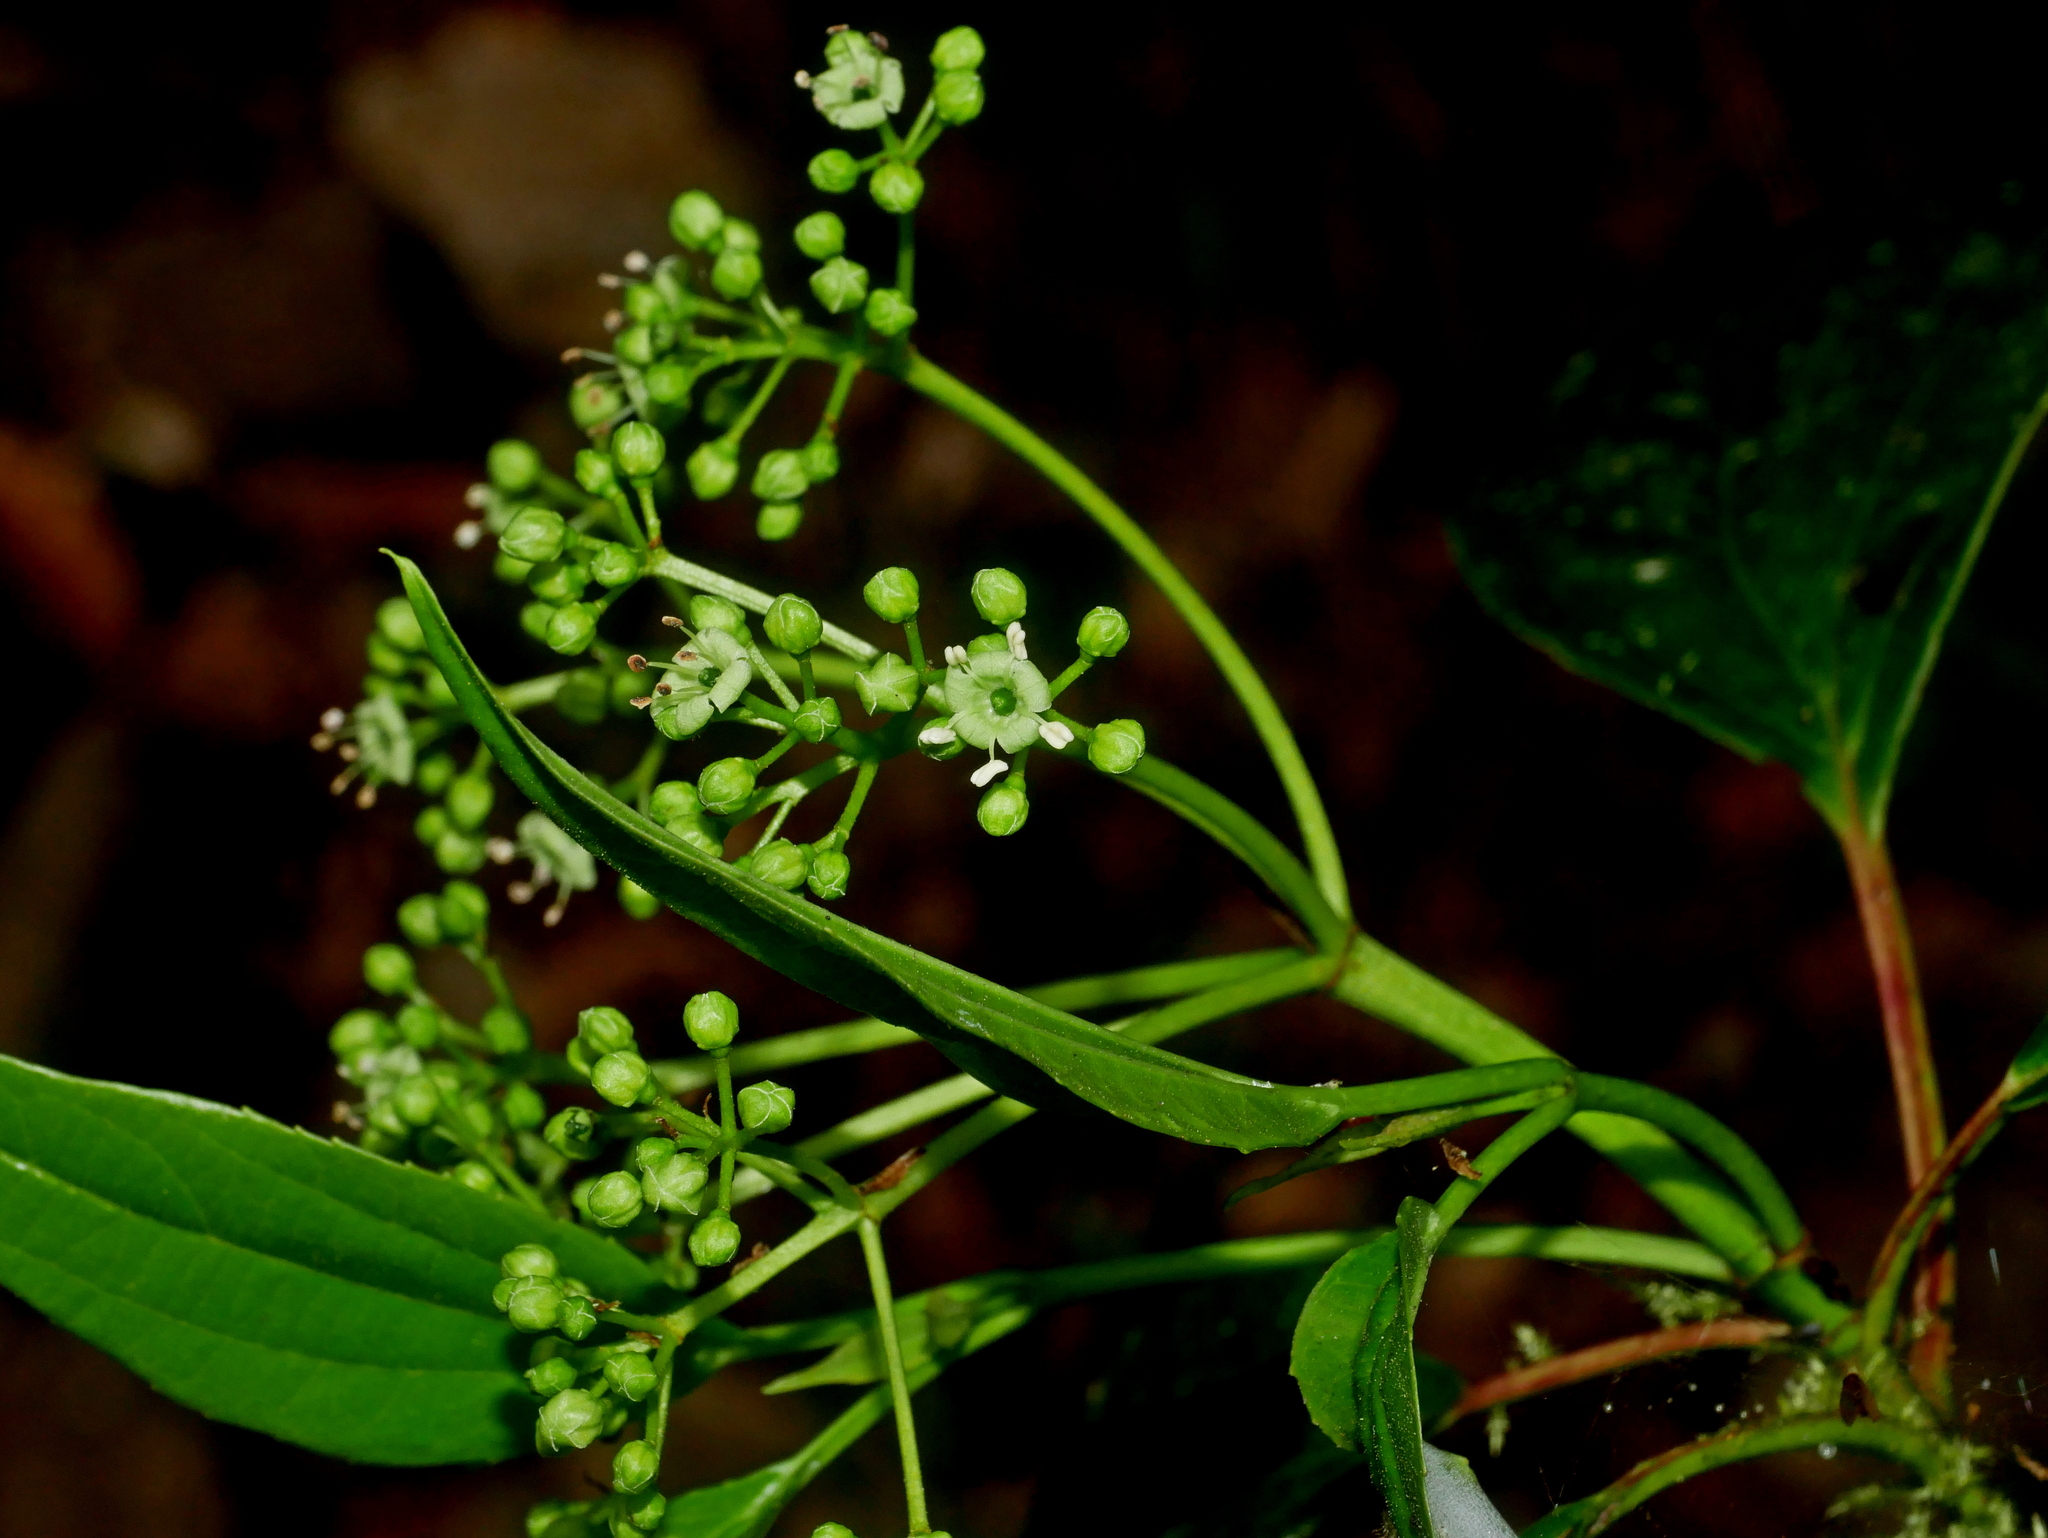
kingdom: Plantae
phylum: Tracheophyta
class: Magnoliopsida
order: Dipsacales
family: Viburnaceae
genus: Viburnum
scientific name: Viburnum propinquum
